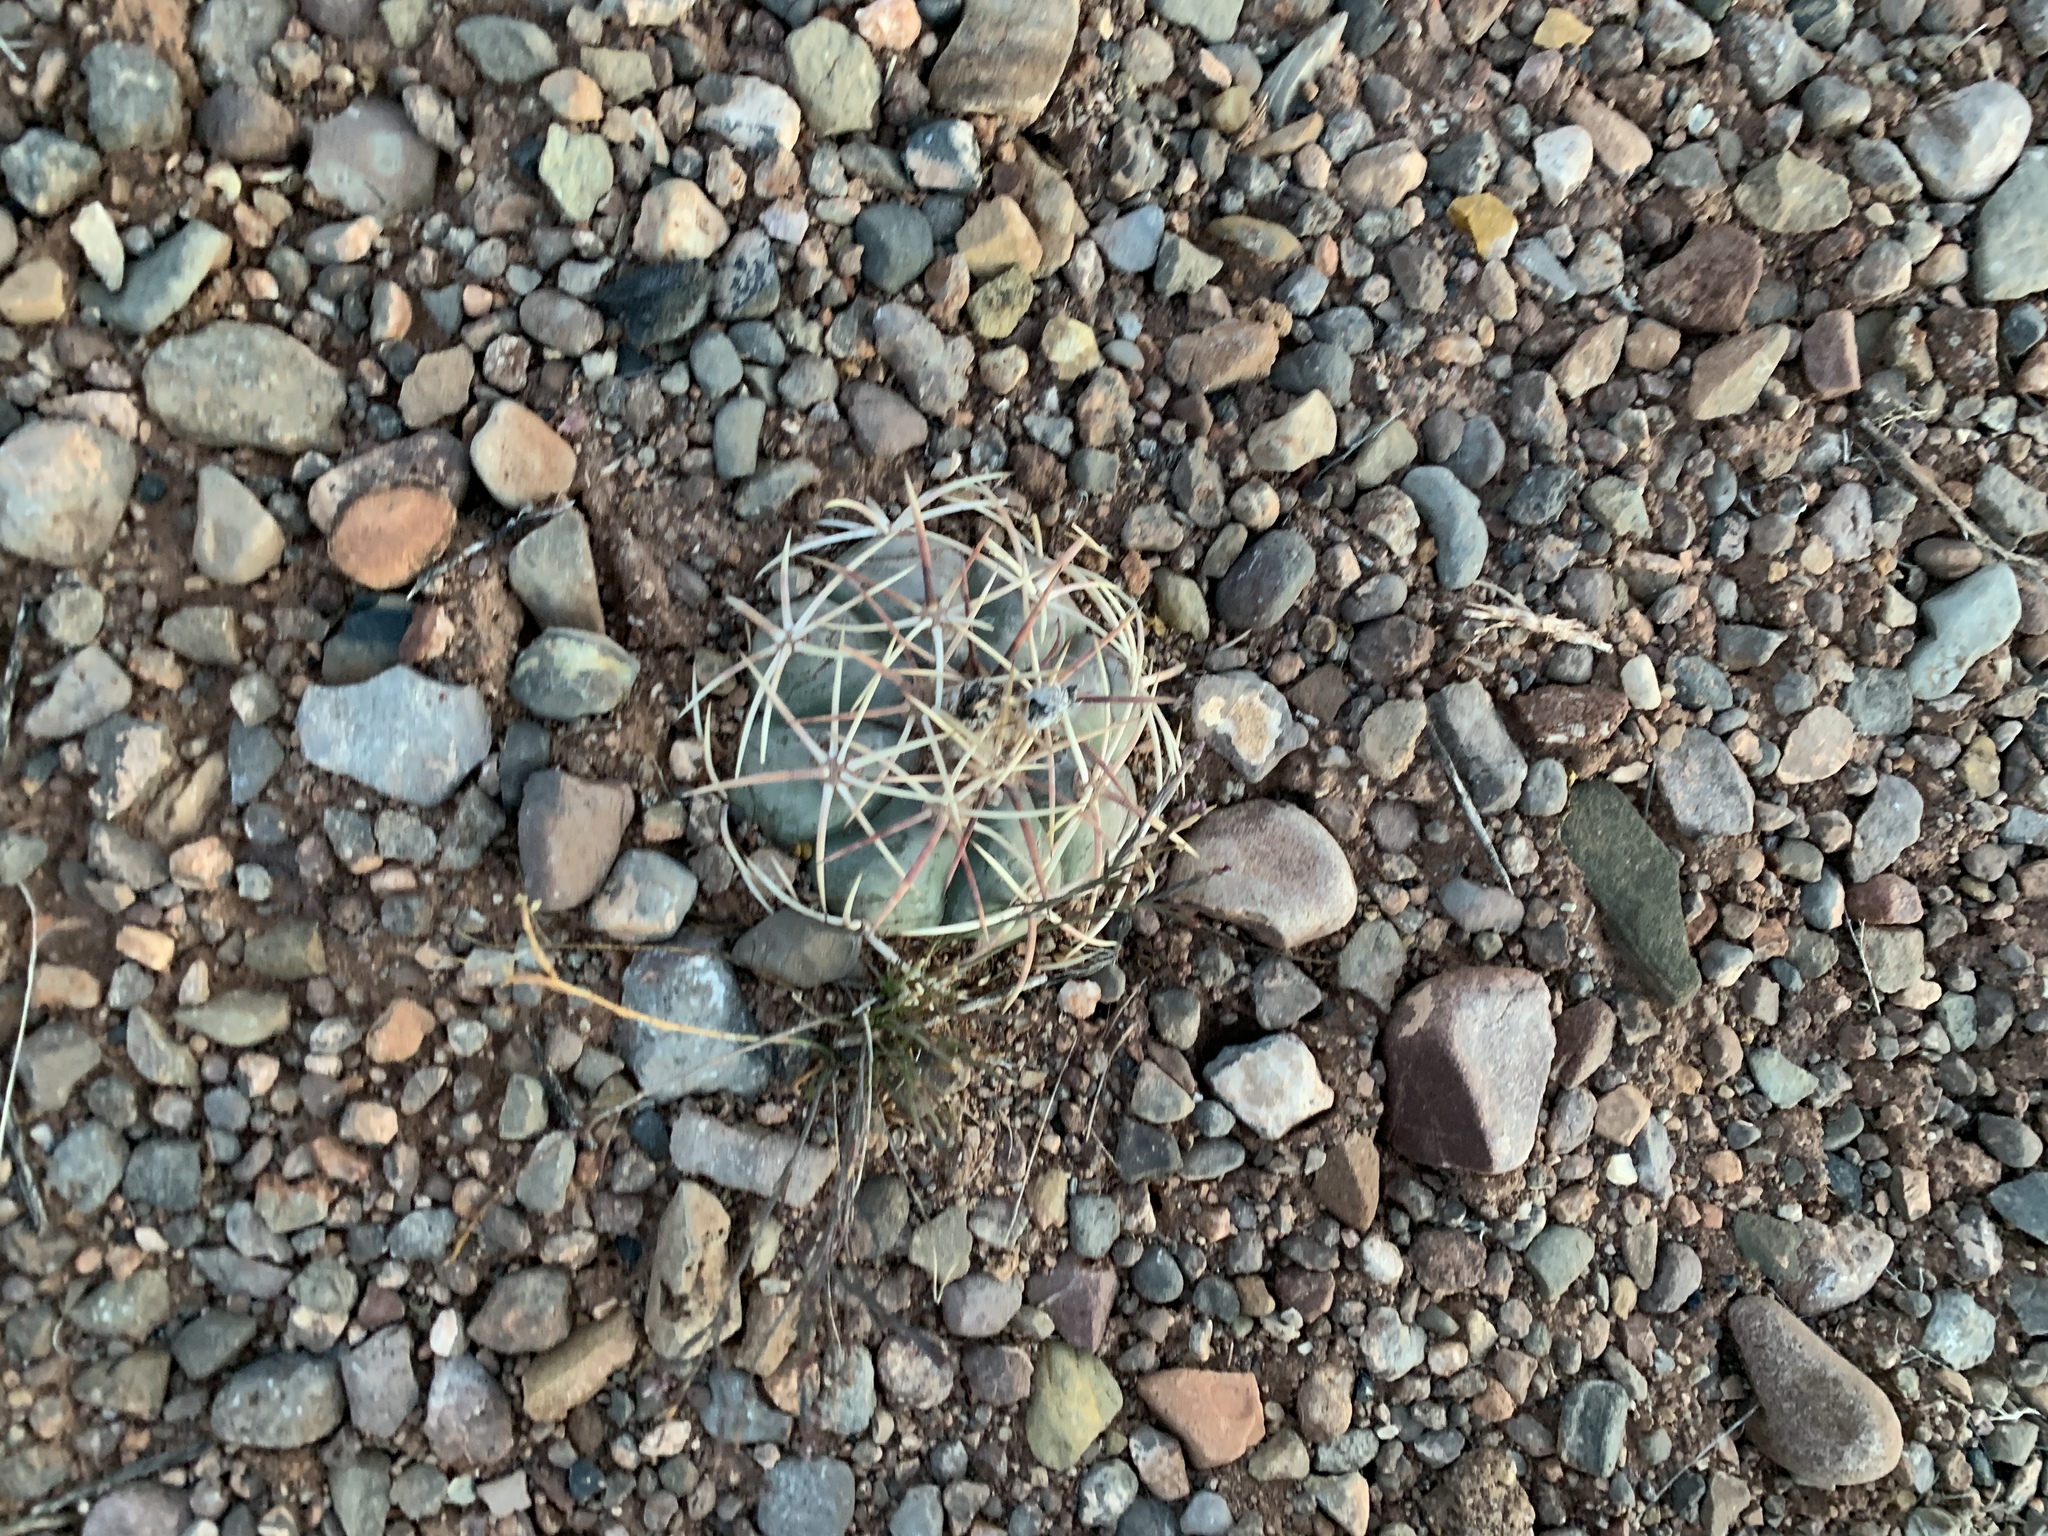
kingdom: Plantae
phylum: Tracheophyta
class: Magnoliopsida
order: Caryophyllales
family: Cactaceae
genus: Echinocactus
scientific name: Echinocactus horizonthalonius
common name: Devilshead
